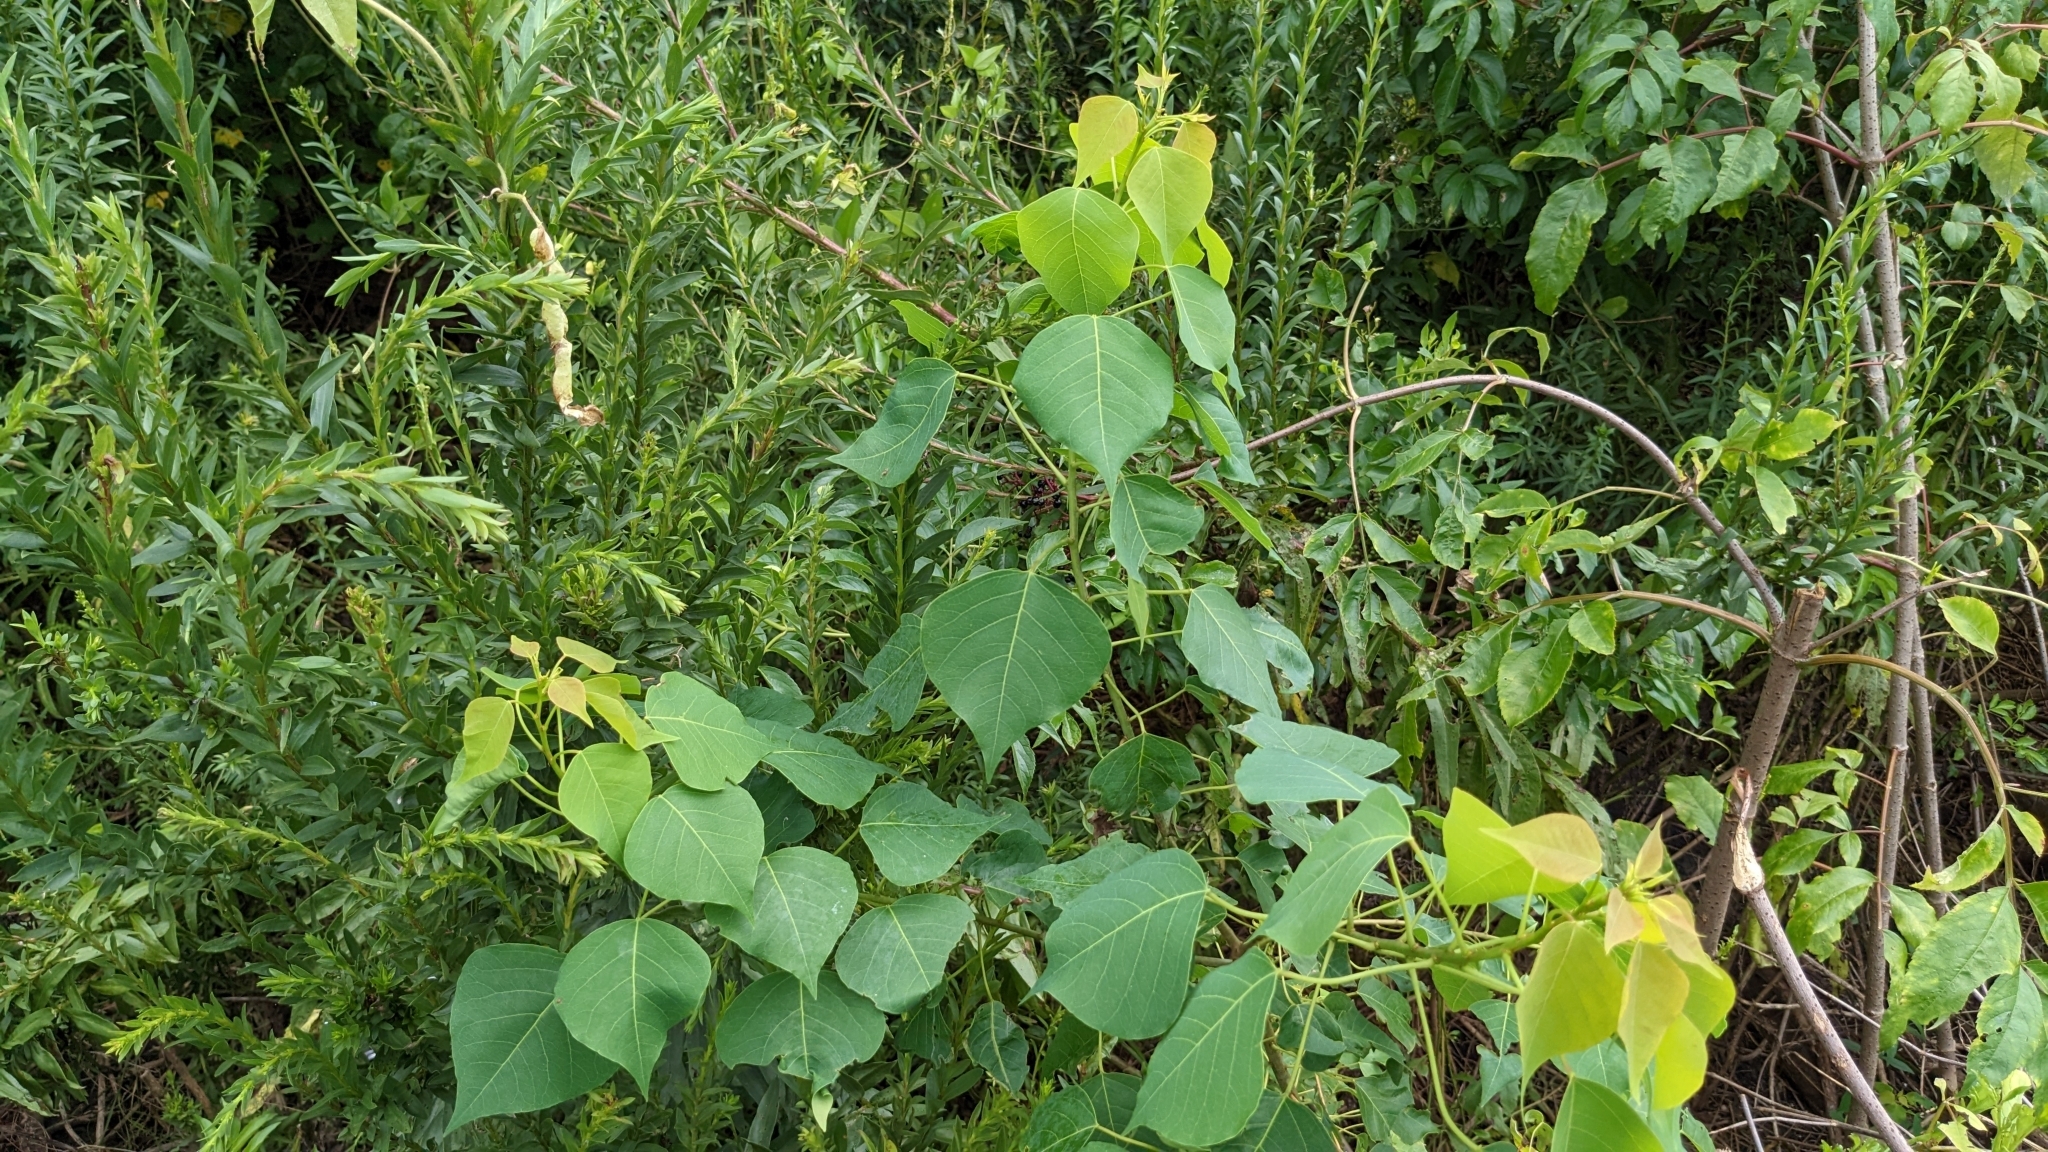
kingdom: Plantae
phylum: Tracheophyta
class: Magnoliopsida
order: Malpighiales
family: Euphorbiaceae
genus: Triadica
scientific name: Triadica sebifera
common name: Chinese tallow
